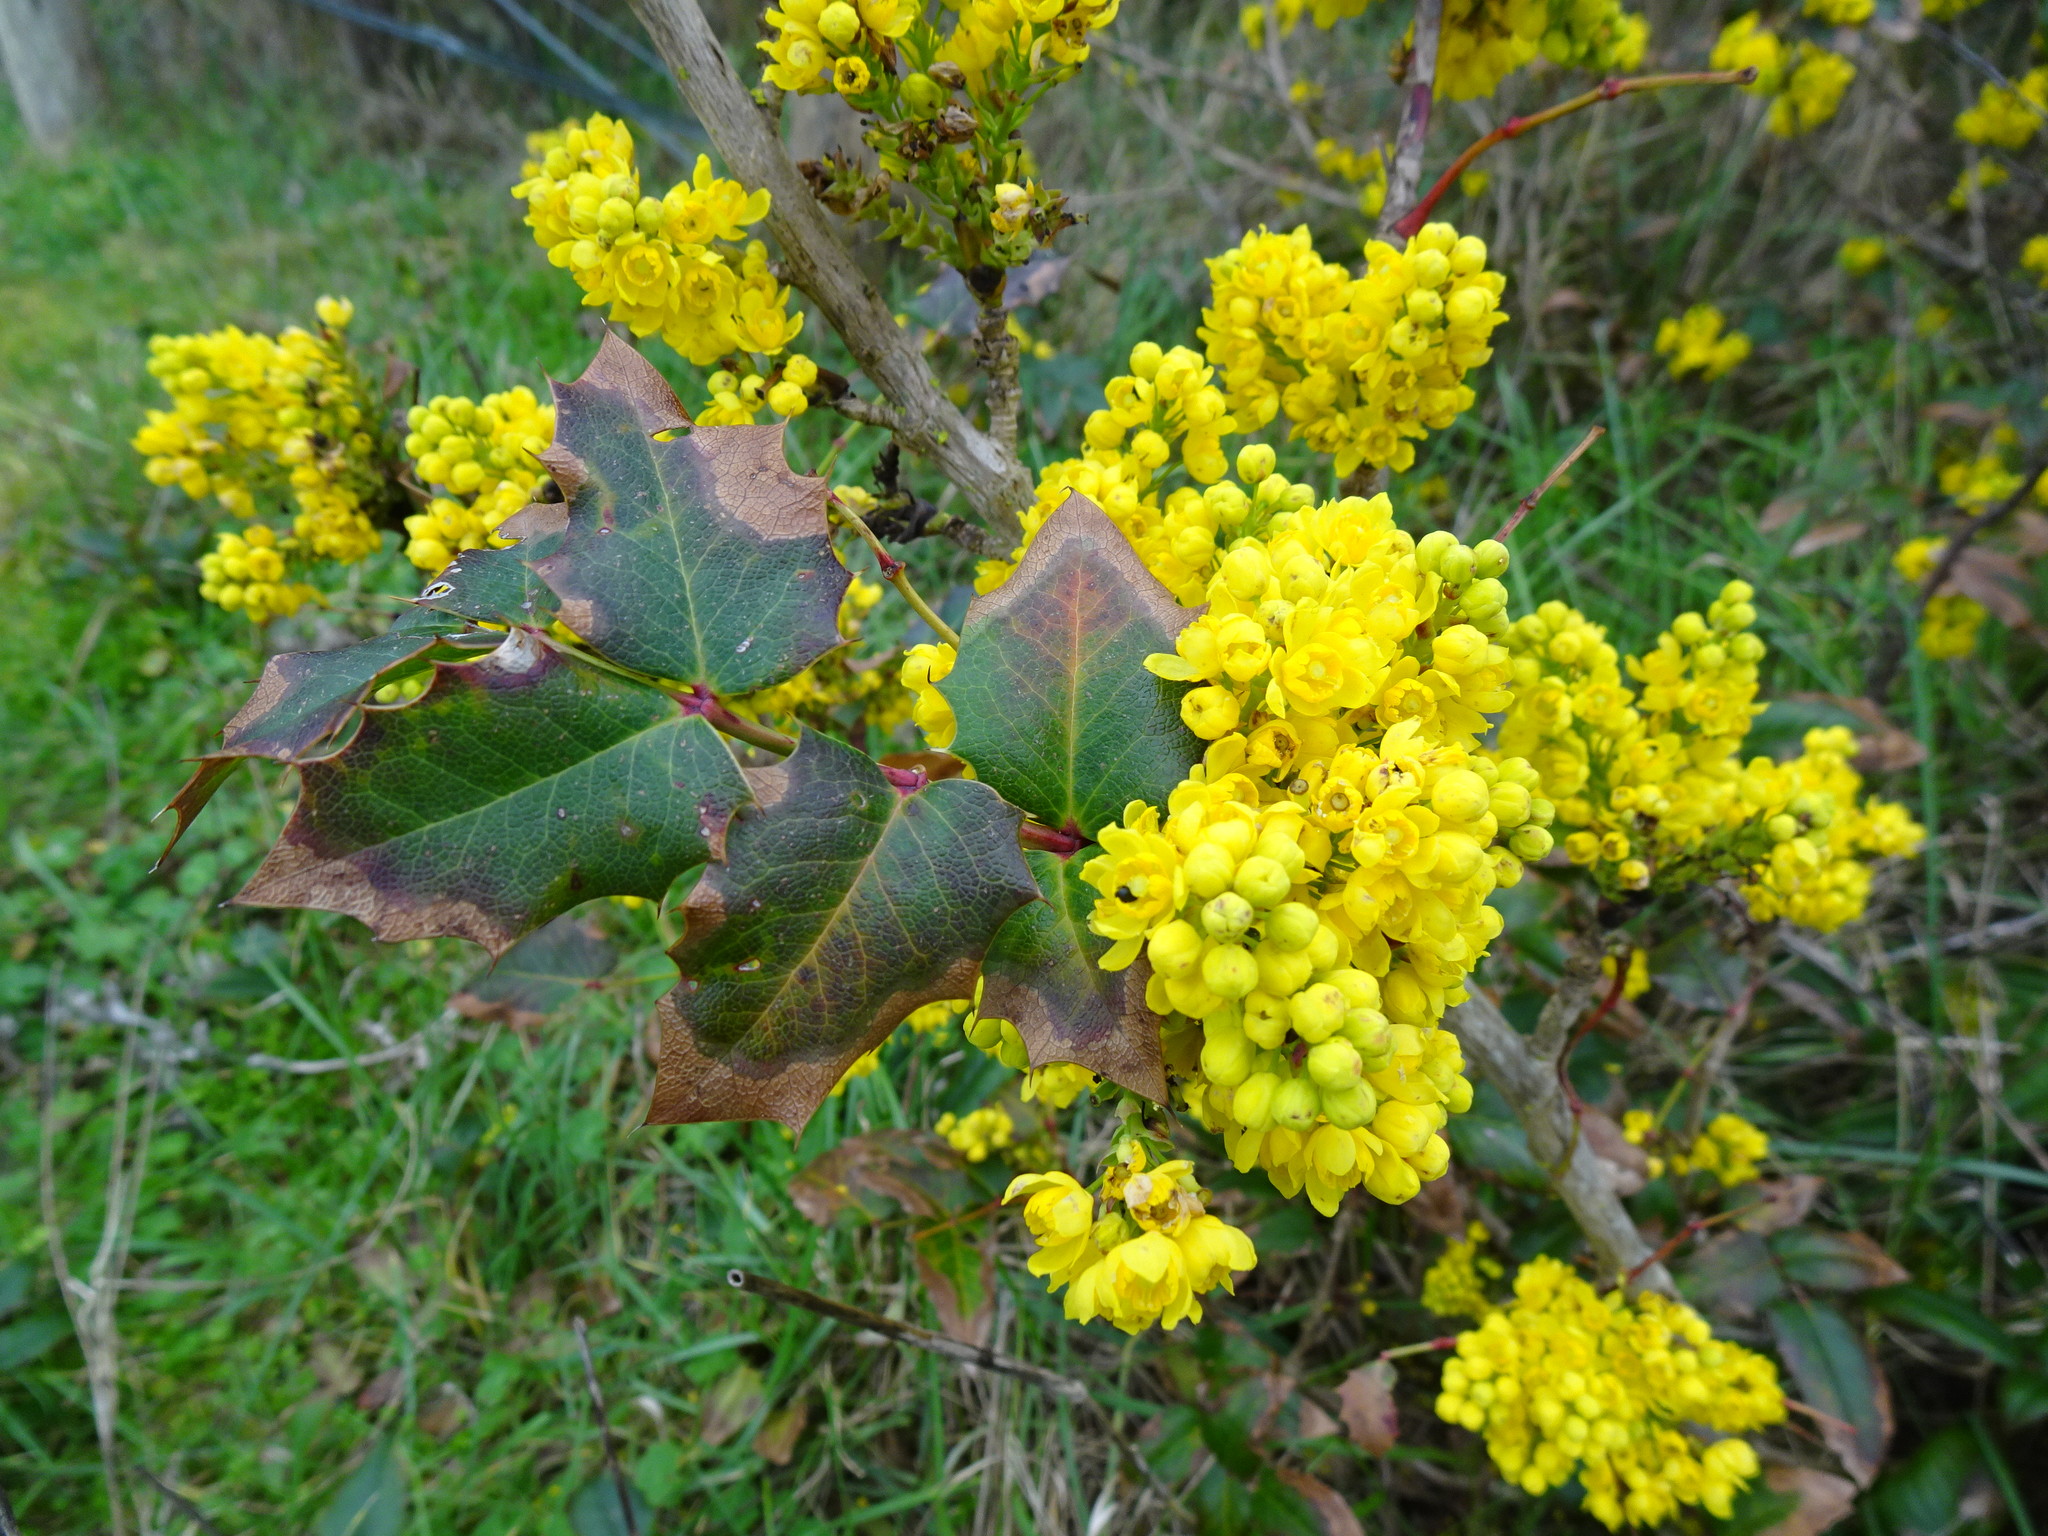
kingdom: Plantae
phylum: Tracheophyta
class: Magnoliopsida
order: Ranunculales
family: Berberidaceae
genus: Mahonia
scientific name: Mahonia aquifolium
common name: Oregon-grape
